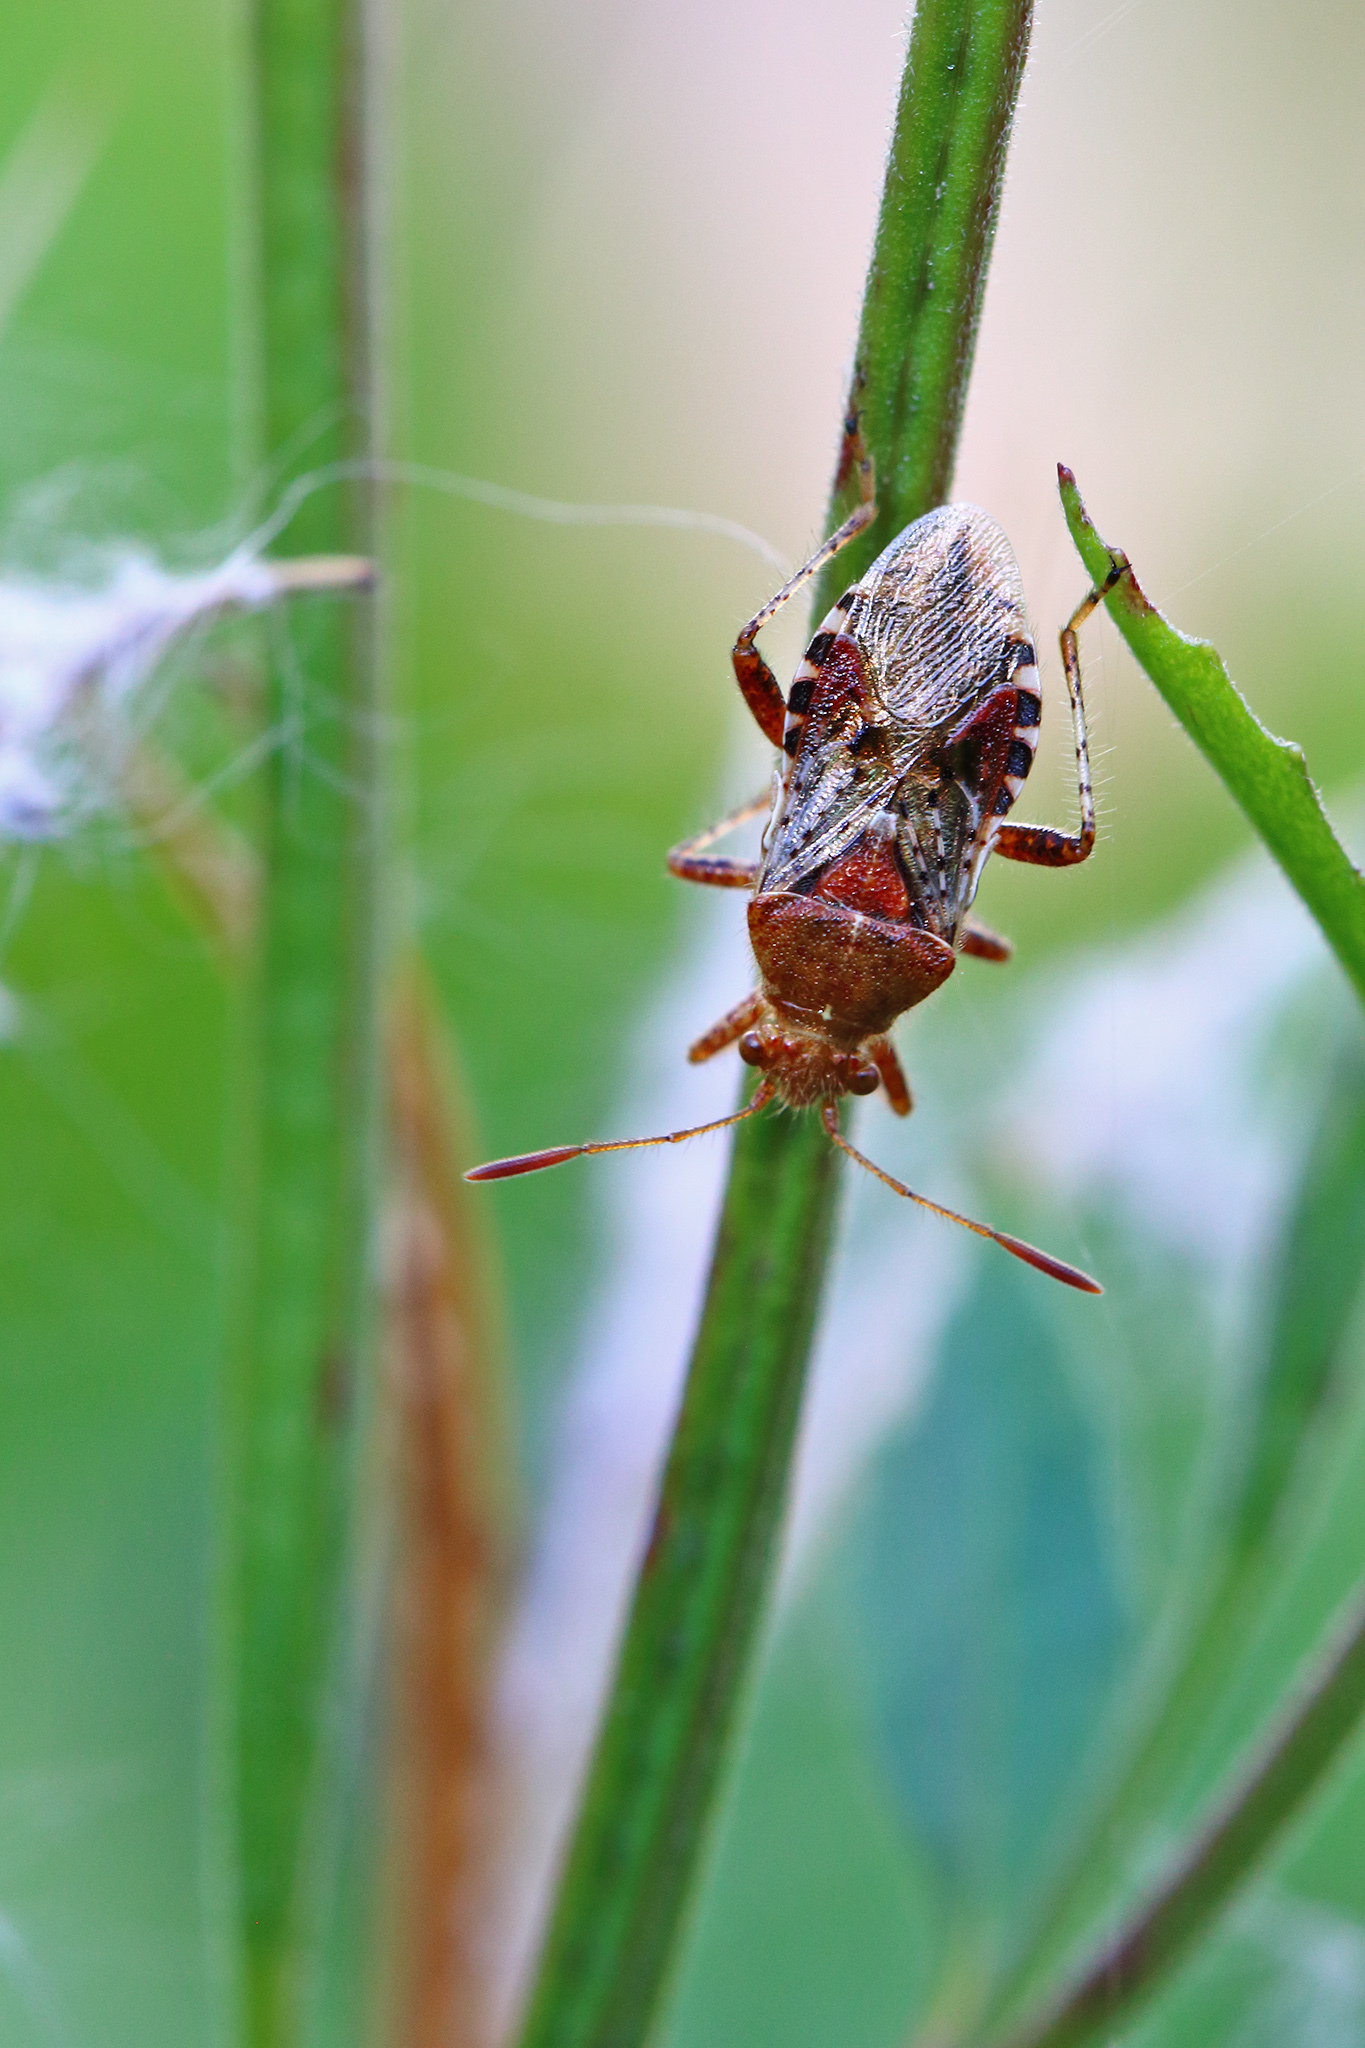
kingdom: Animalia
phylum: Arthropoda
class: Insecta
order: Hemiptera
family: Rhopalidae
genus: Rhopalus
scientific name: Rhopalus subrufus
